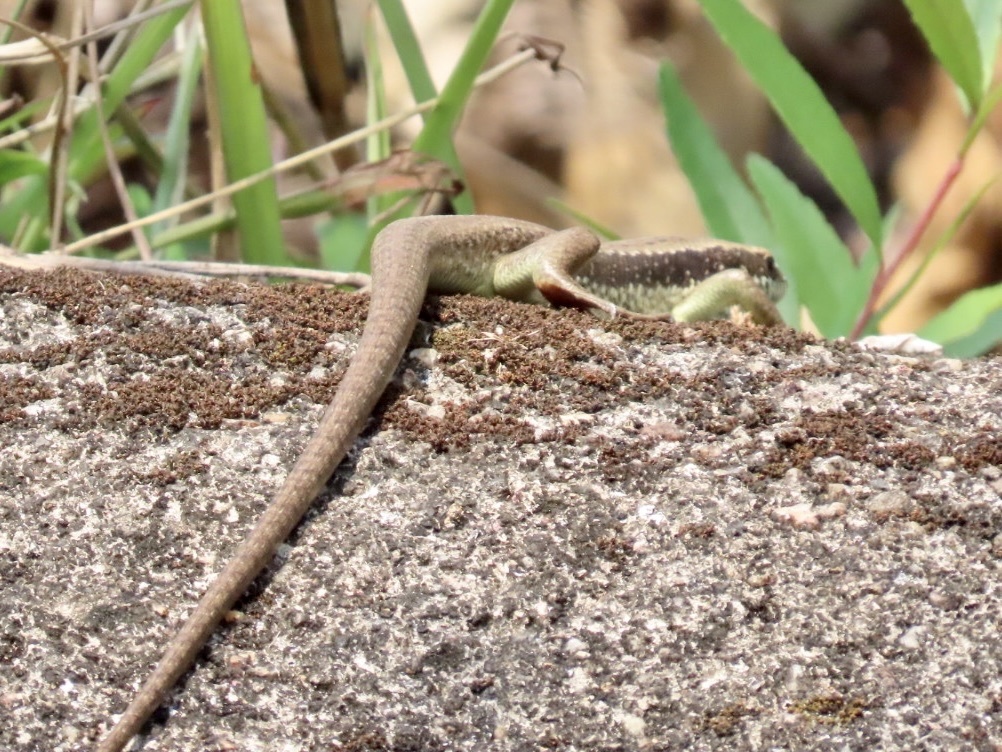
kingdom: Animalia
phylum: Chordata
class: Squamata
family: Scincidae
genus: Eutropis
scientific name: Eutropis longicaudata
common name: Long-tailed sun skink
